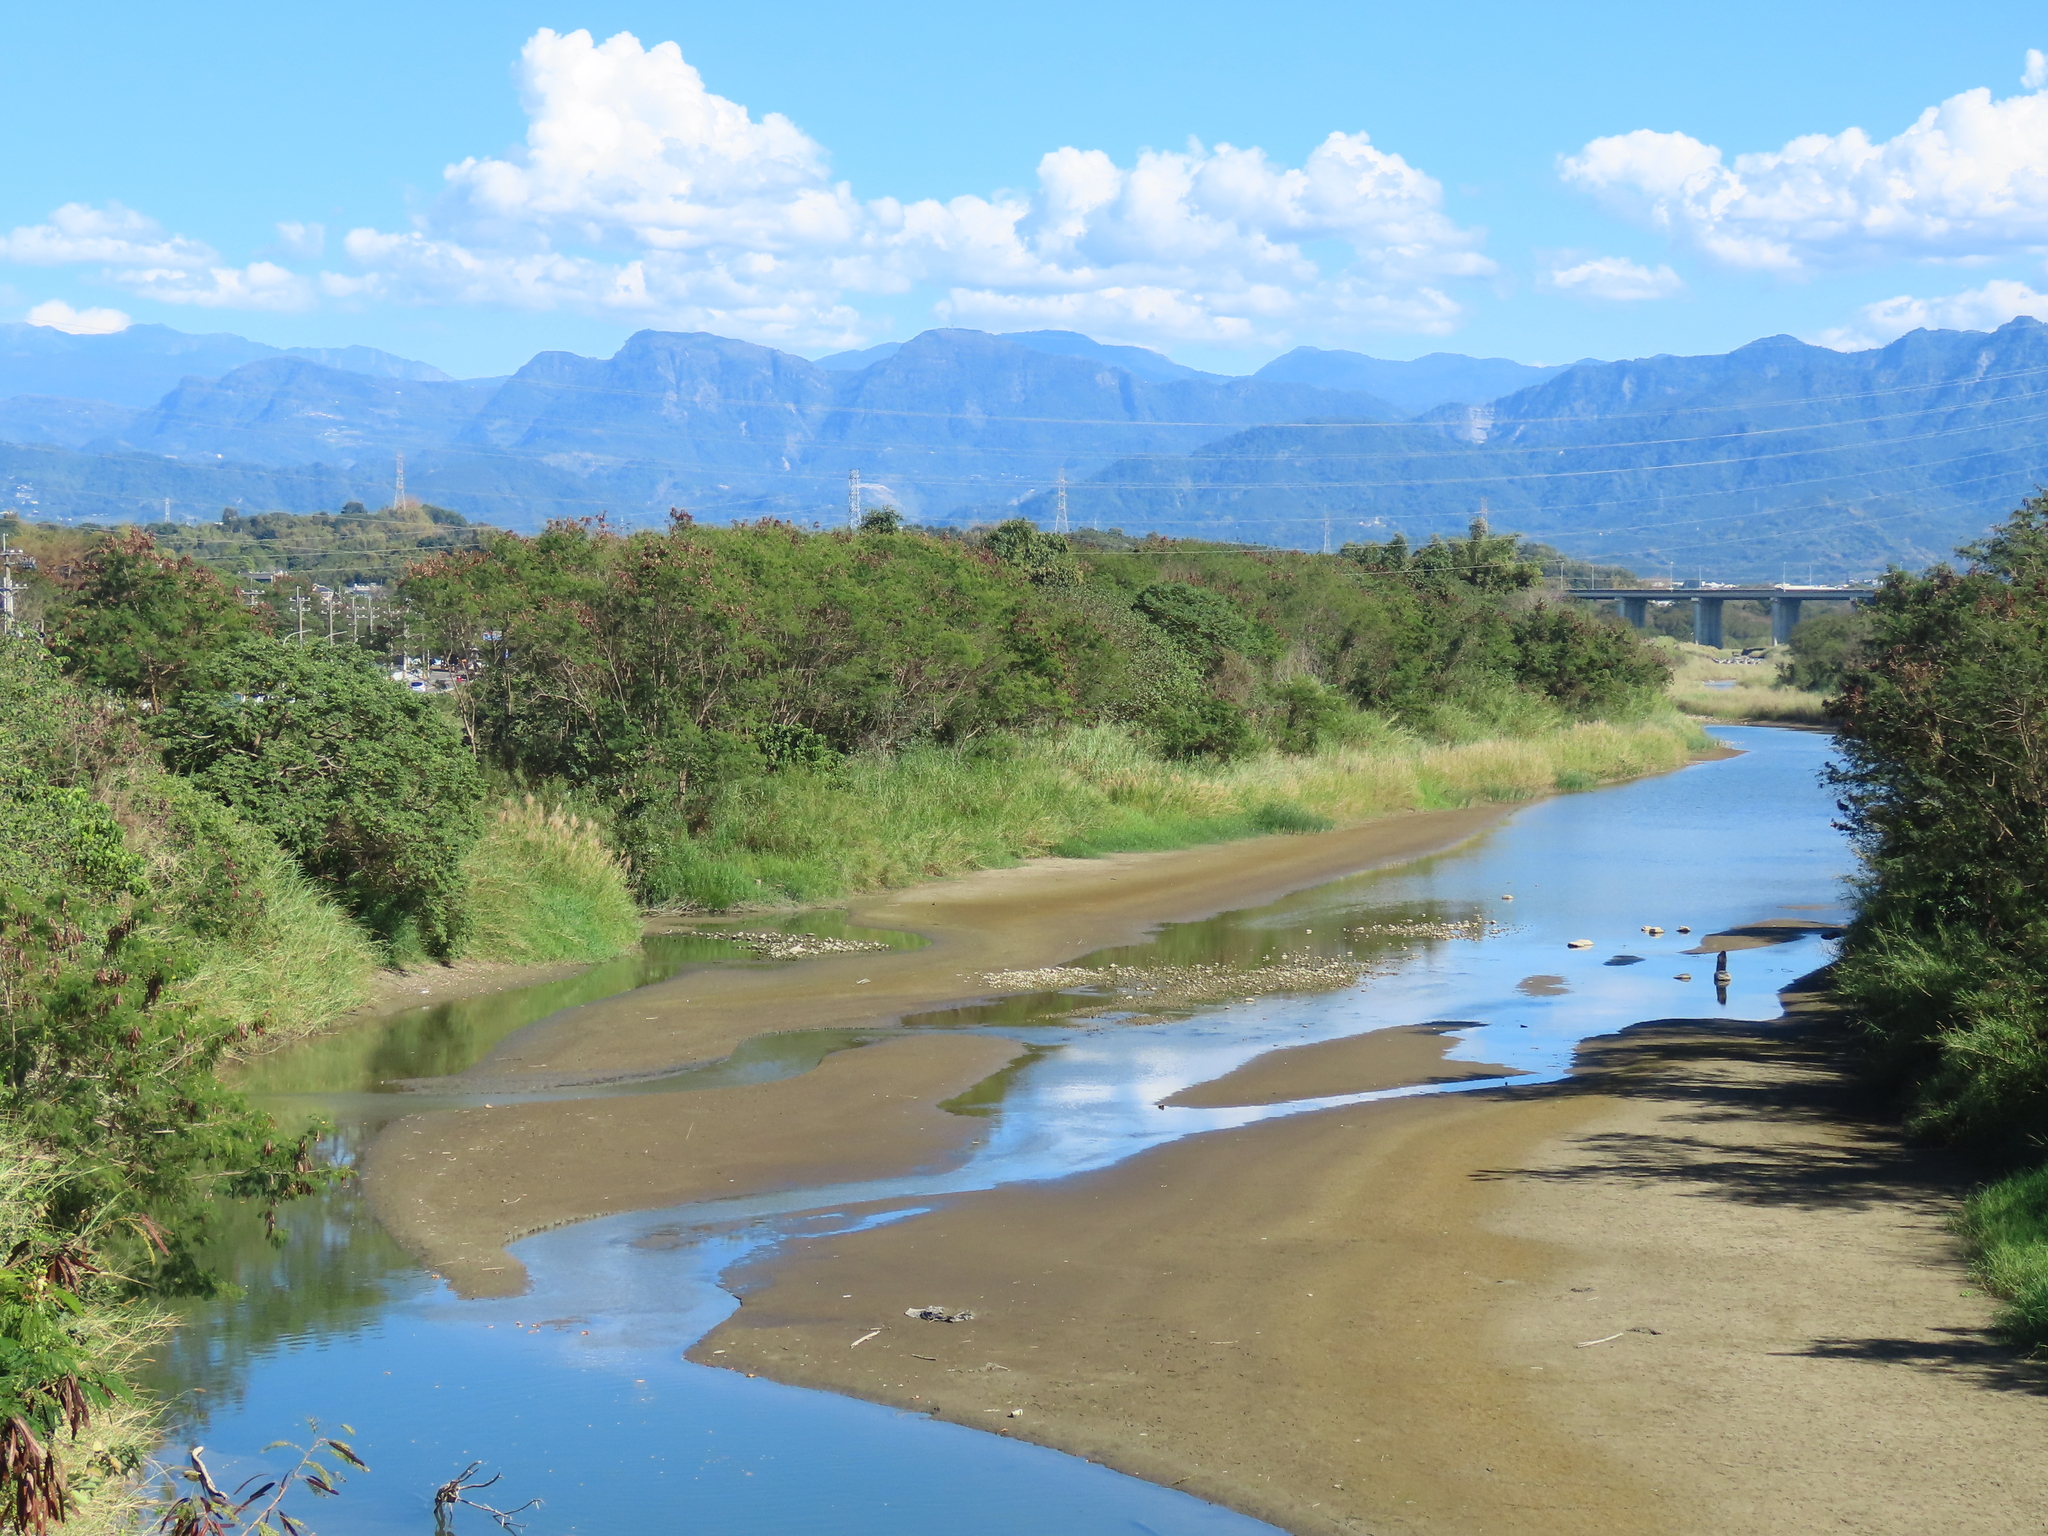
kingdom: Animalia
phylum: Chordata
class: Aves
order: Passeriformes
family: Estrildidae
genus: Lonchura
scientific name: Lonchura punctulata
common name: Scaly-breasted munia
